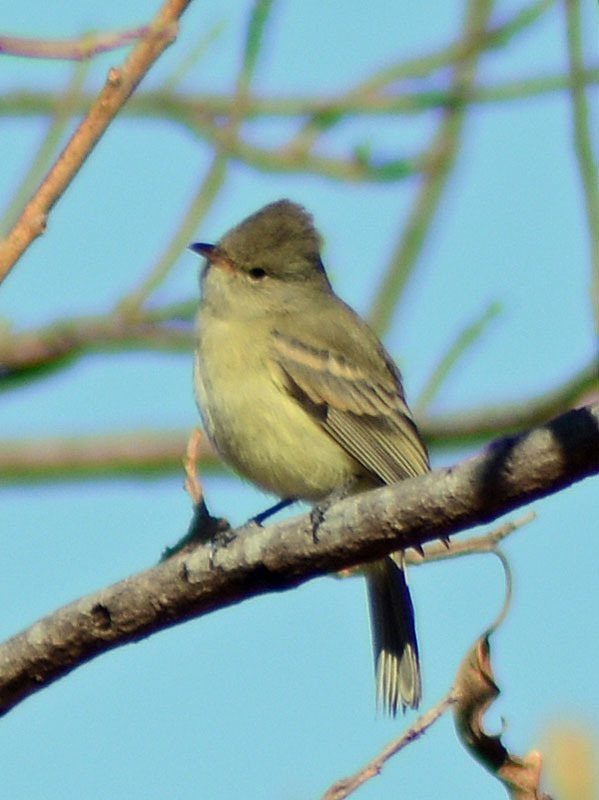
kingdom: Animalia
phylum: Chordata
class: Aves
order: Passeriformes
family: Tyrannidae
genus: Camptostoma
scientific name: Camptostoma imberbe
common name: Northern beardless-tyrannulet
